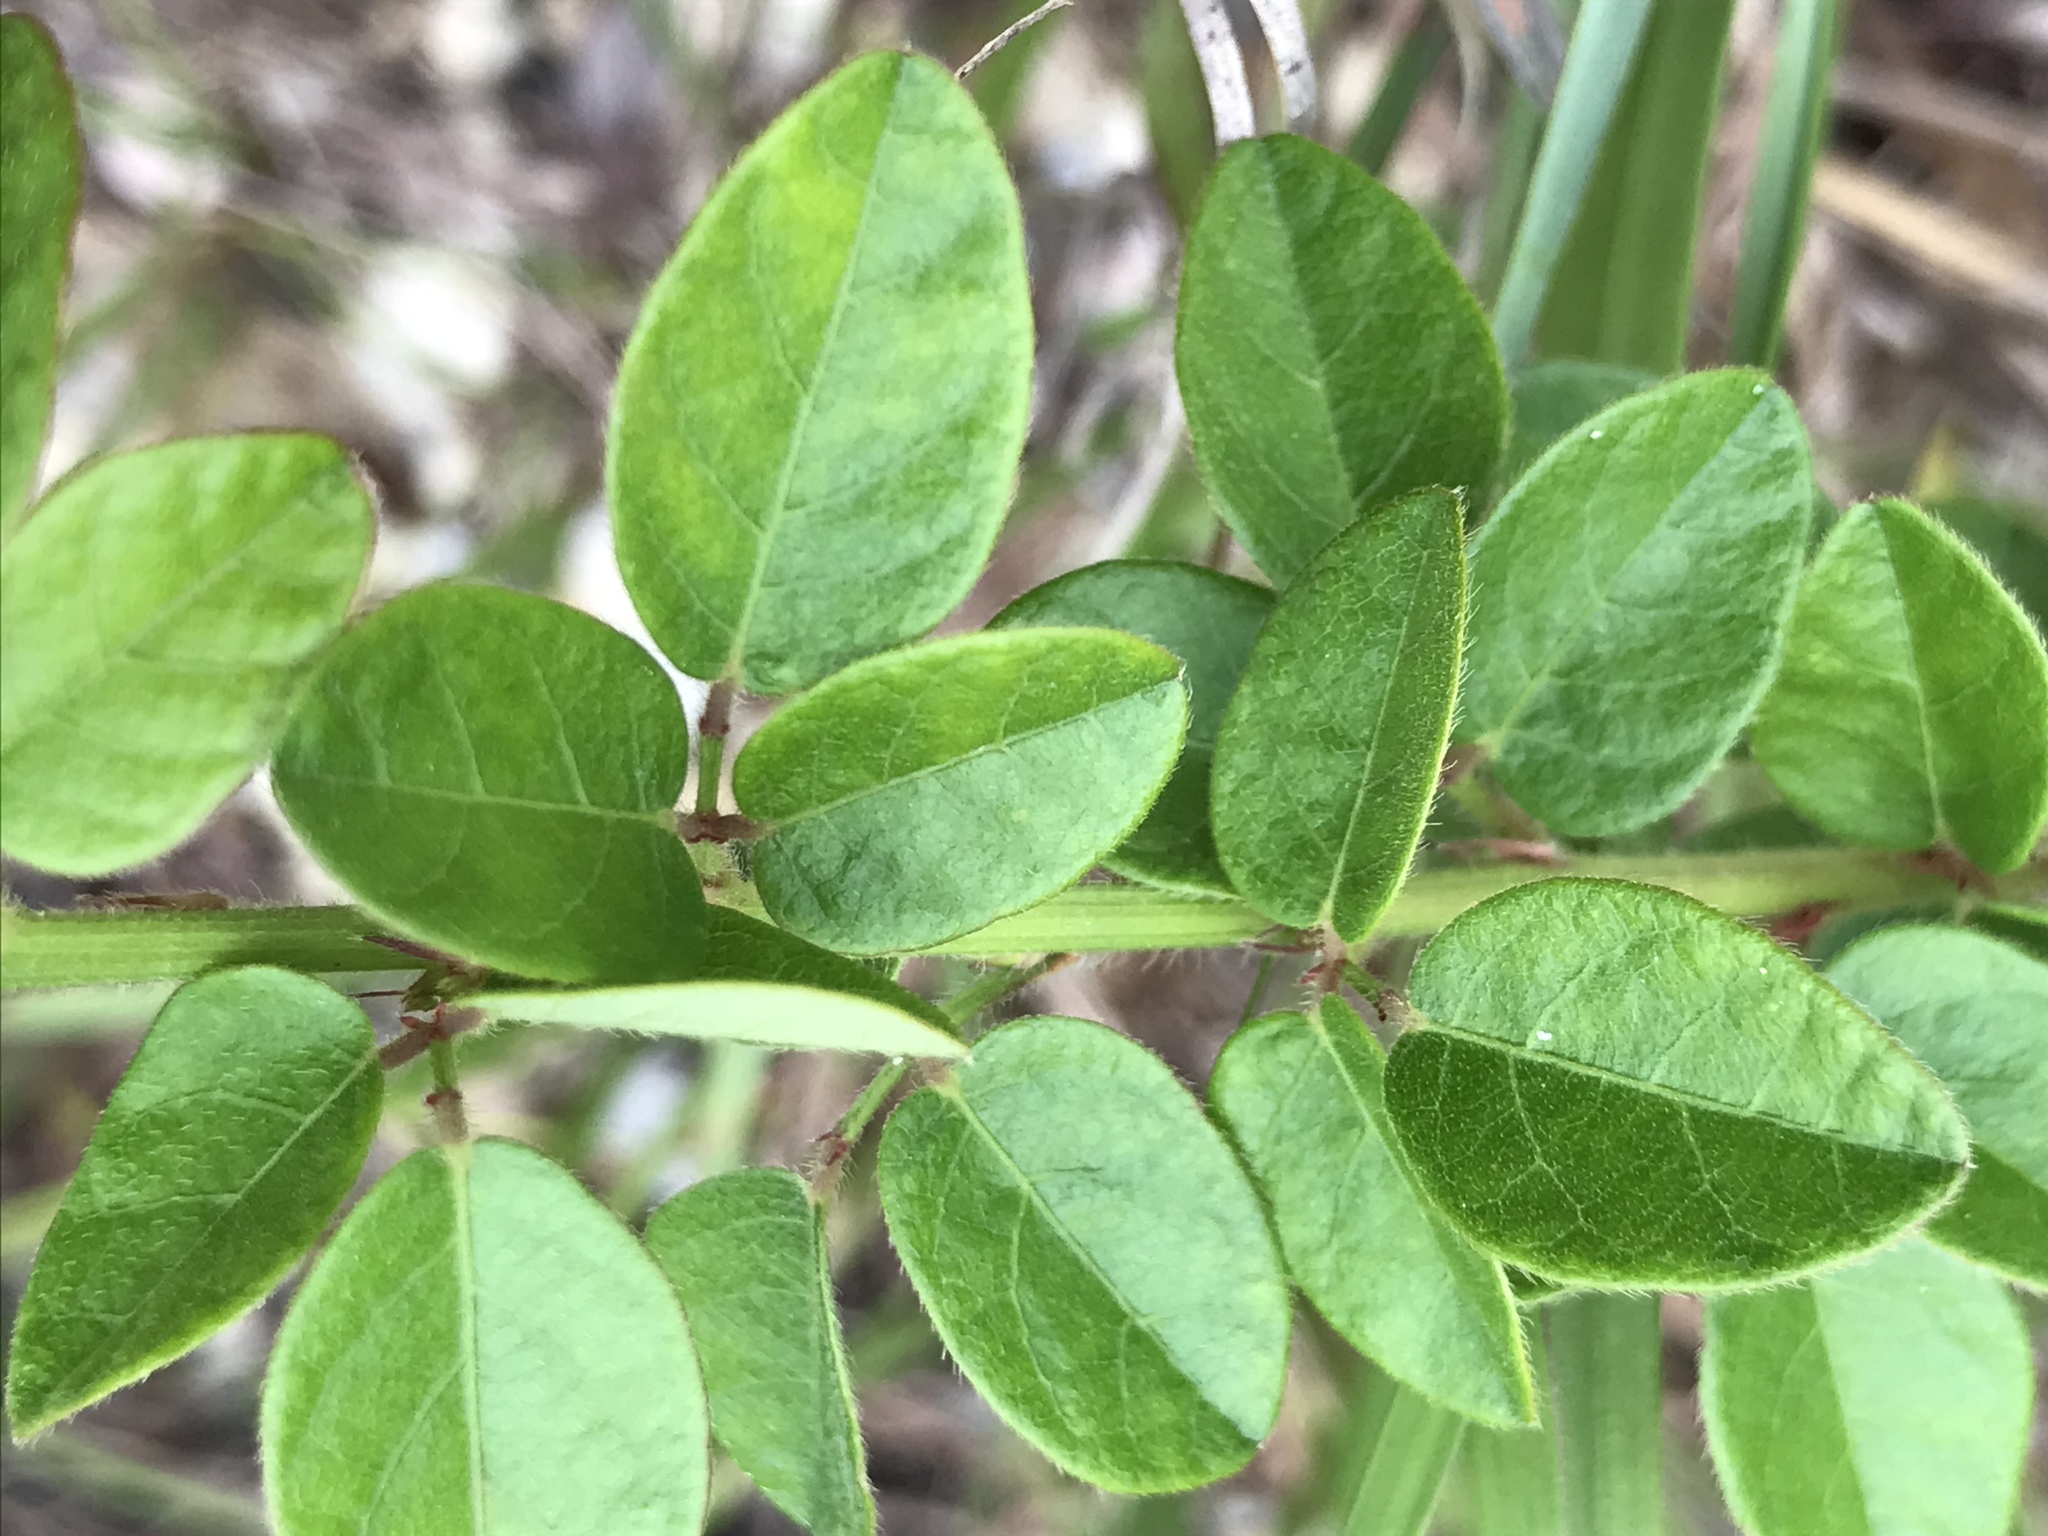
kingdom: Plantae
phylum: Tracheophyta
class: Magnoliopsida
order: Fabales
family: Fabaceae
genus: Desmodium
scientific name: Desmodium ciliare
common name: Hairy small-leaf ticktrefoil
